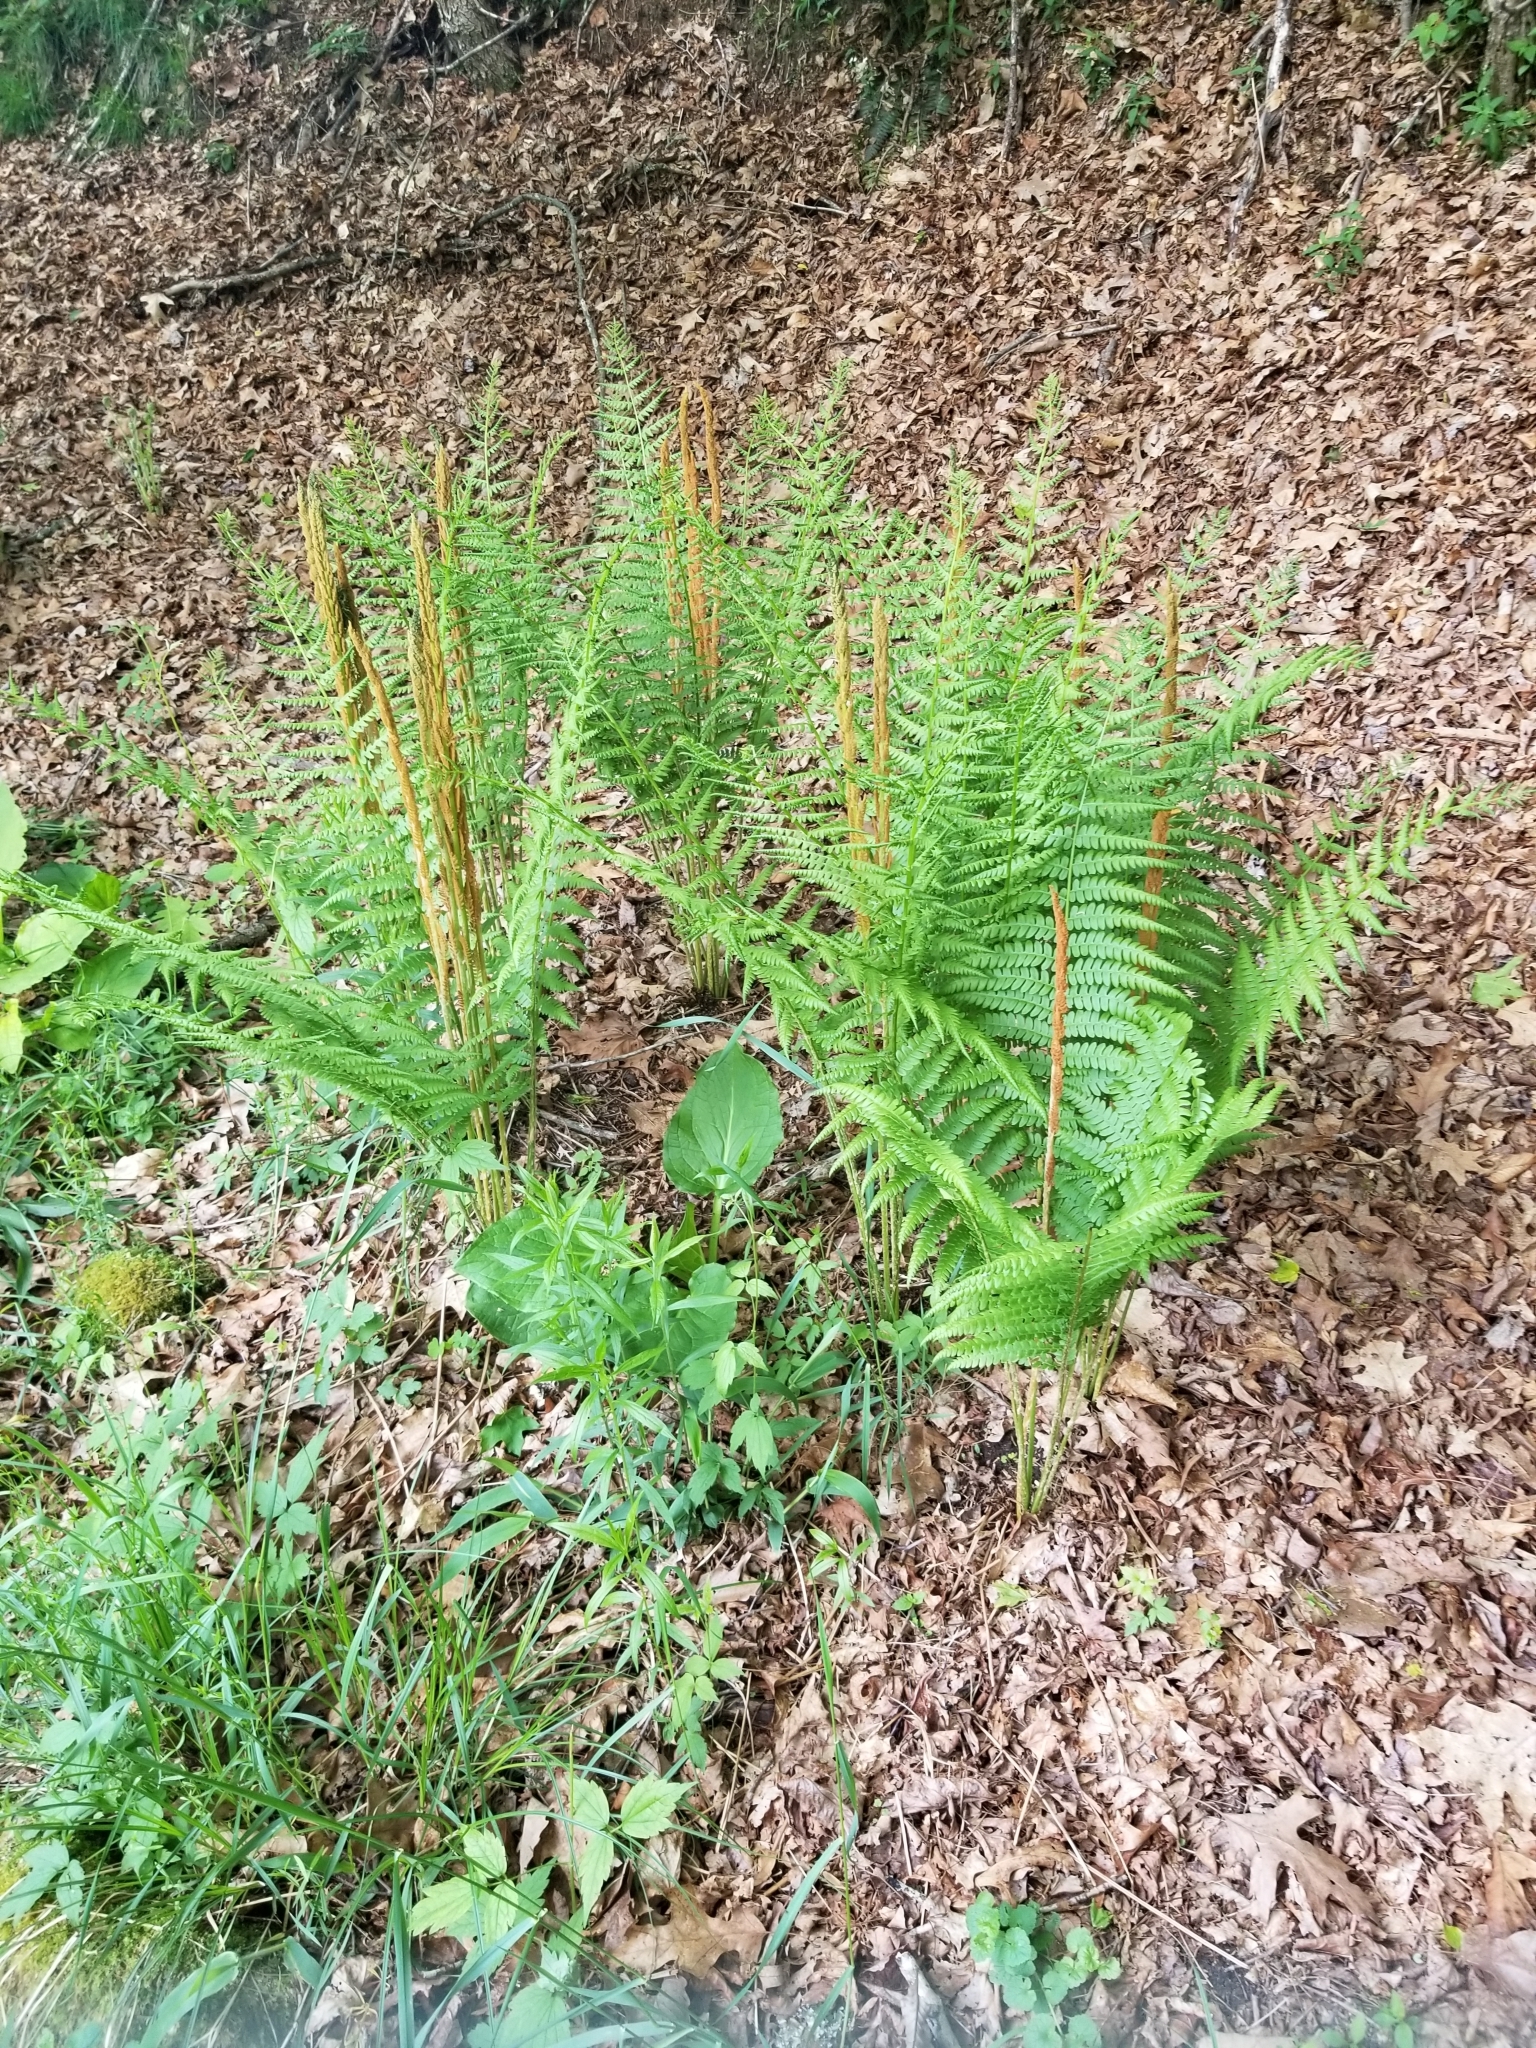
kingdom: Plantae
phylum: Tracheophyta
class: Polypodiopsida
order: Osmundales
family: Osmundaceae
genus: Osmundastrum
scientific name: Osmundastrum cinnamomeum
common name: Cinnamon fern
